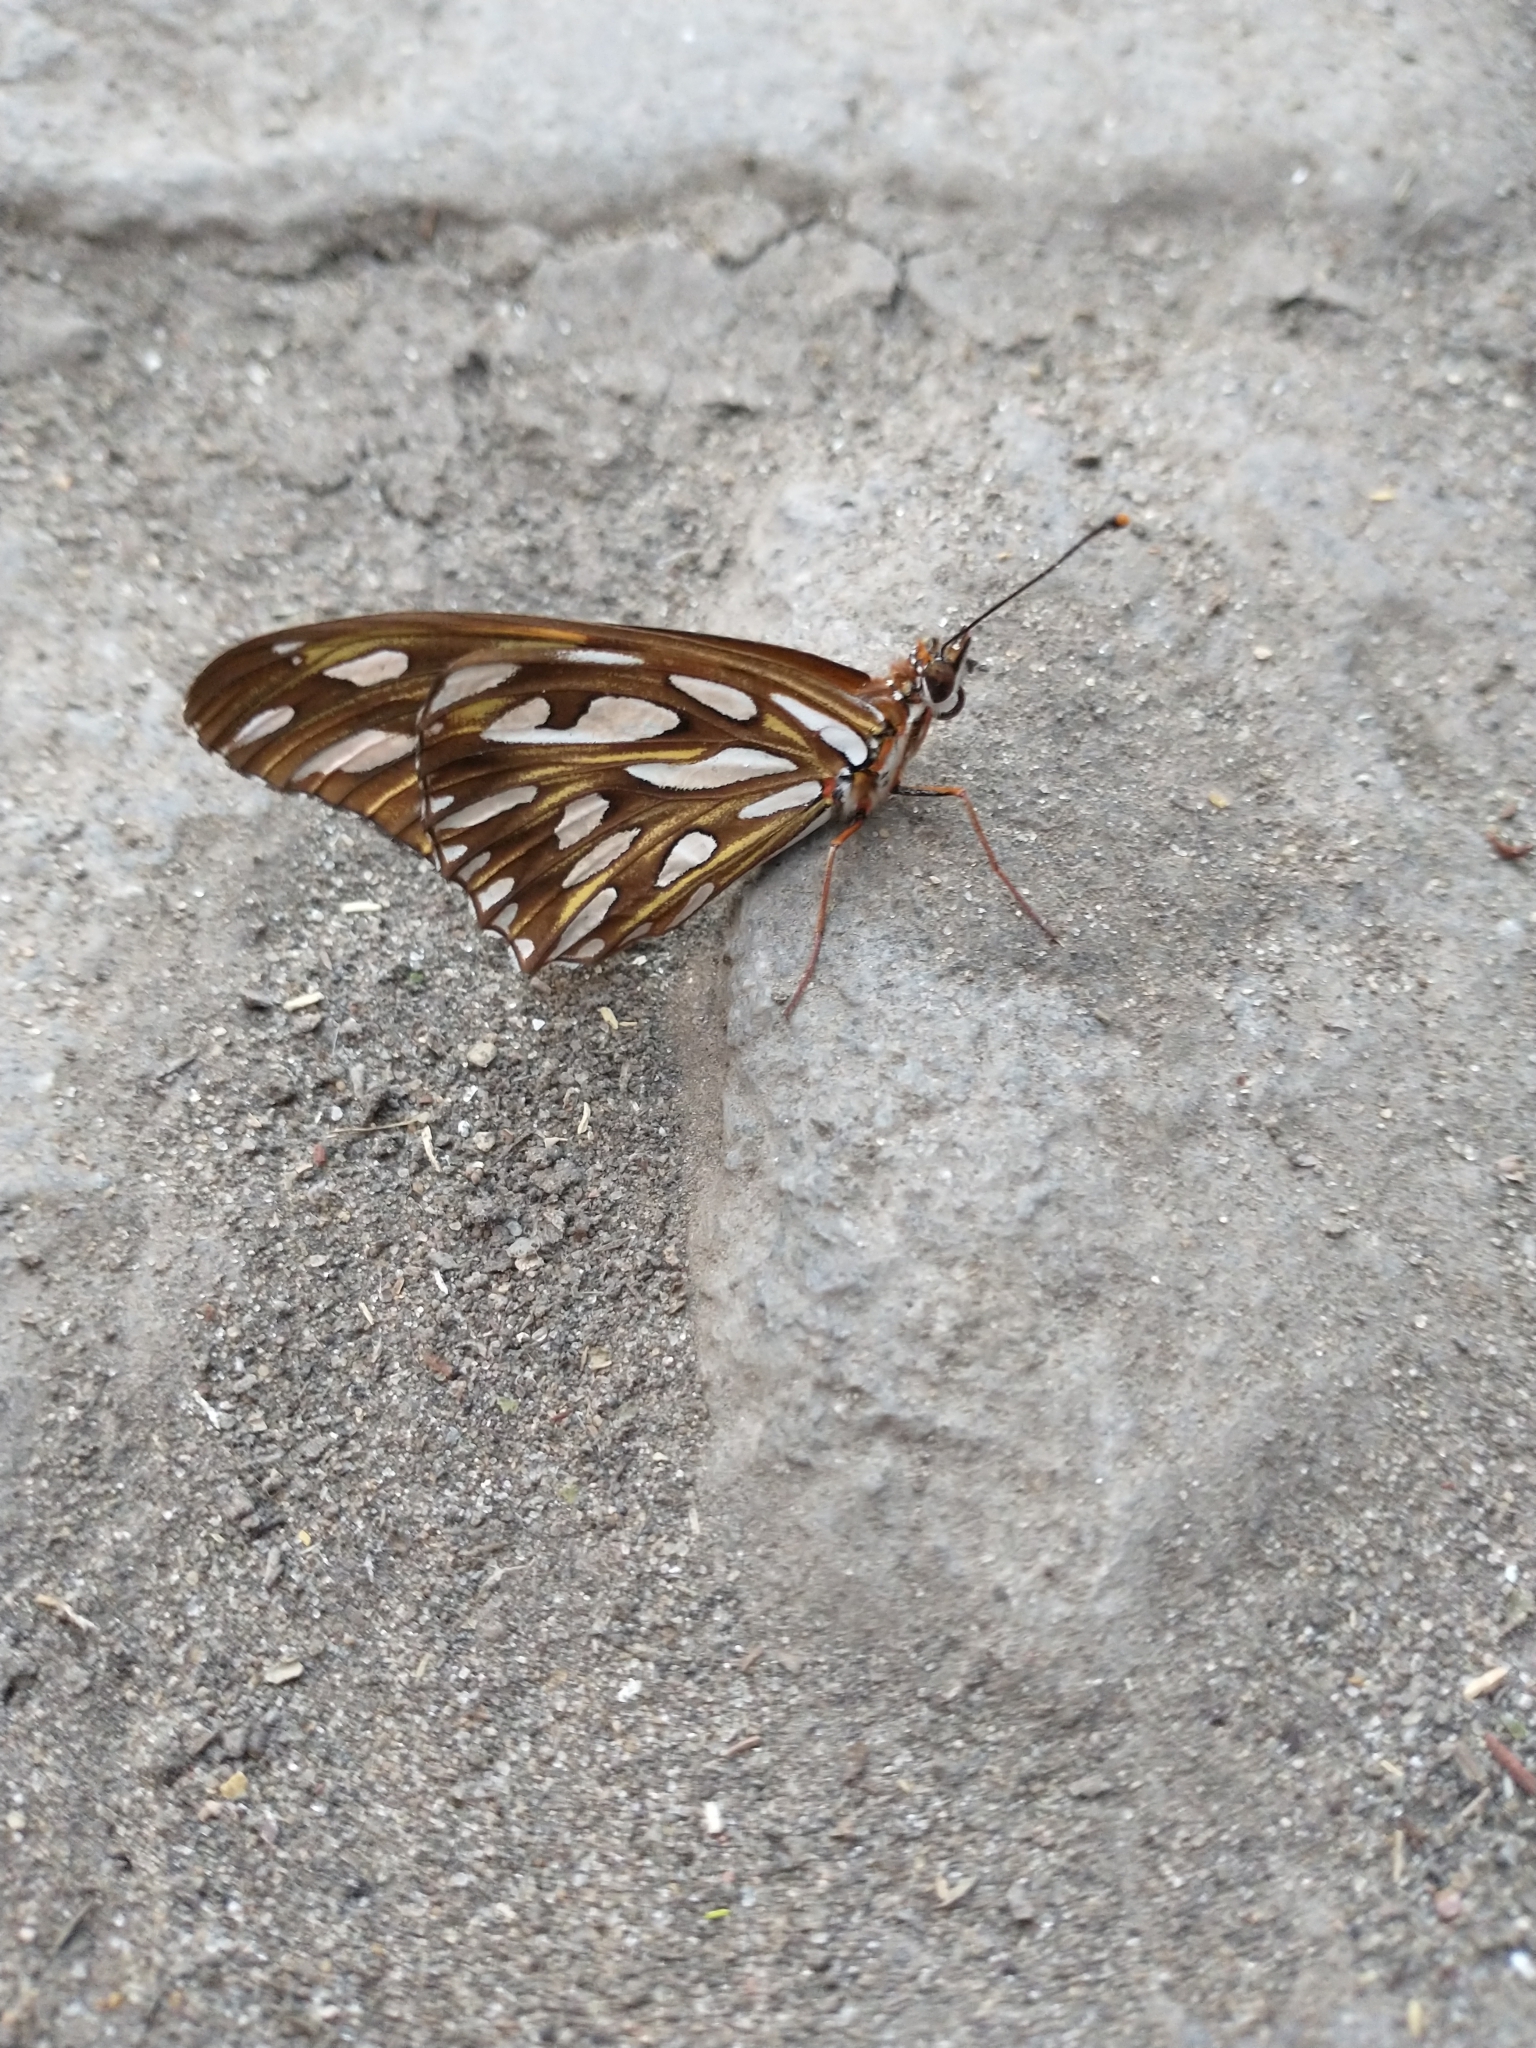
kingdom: Animalia
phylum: Arthropoda
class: Insecta
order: Lepidoptera
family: Nymphalidae
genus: Dione
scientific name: Dione vanillae
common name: Gulf fritillary
